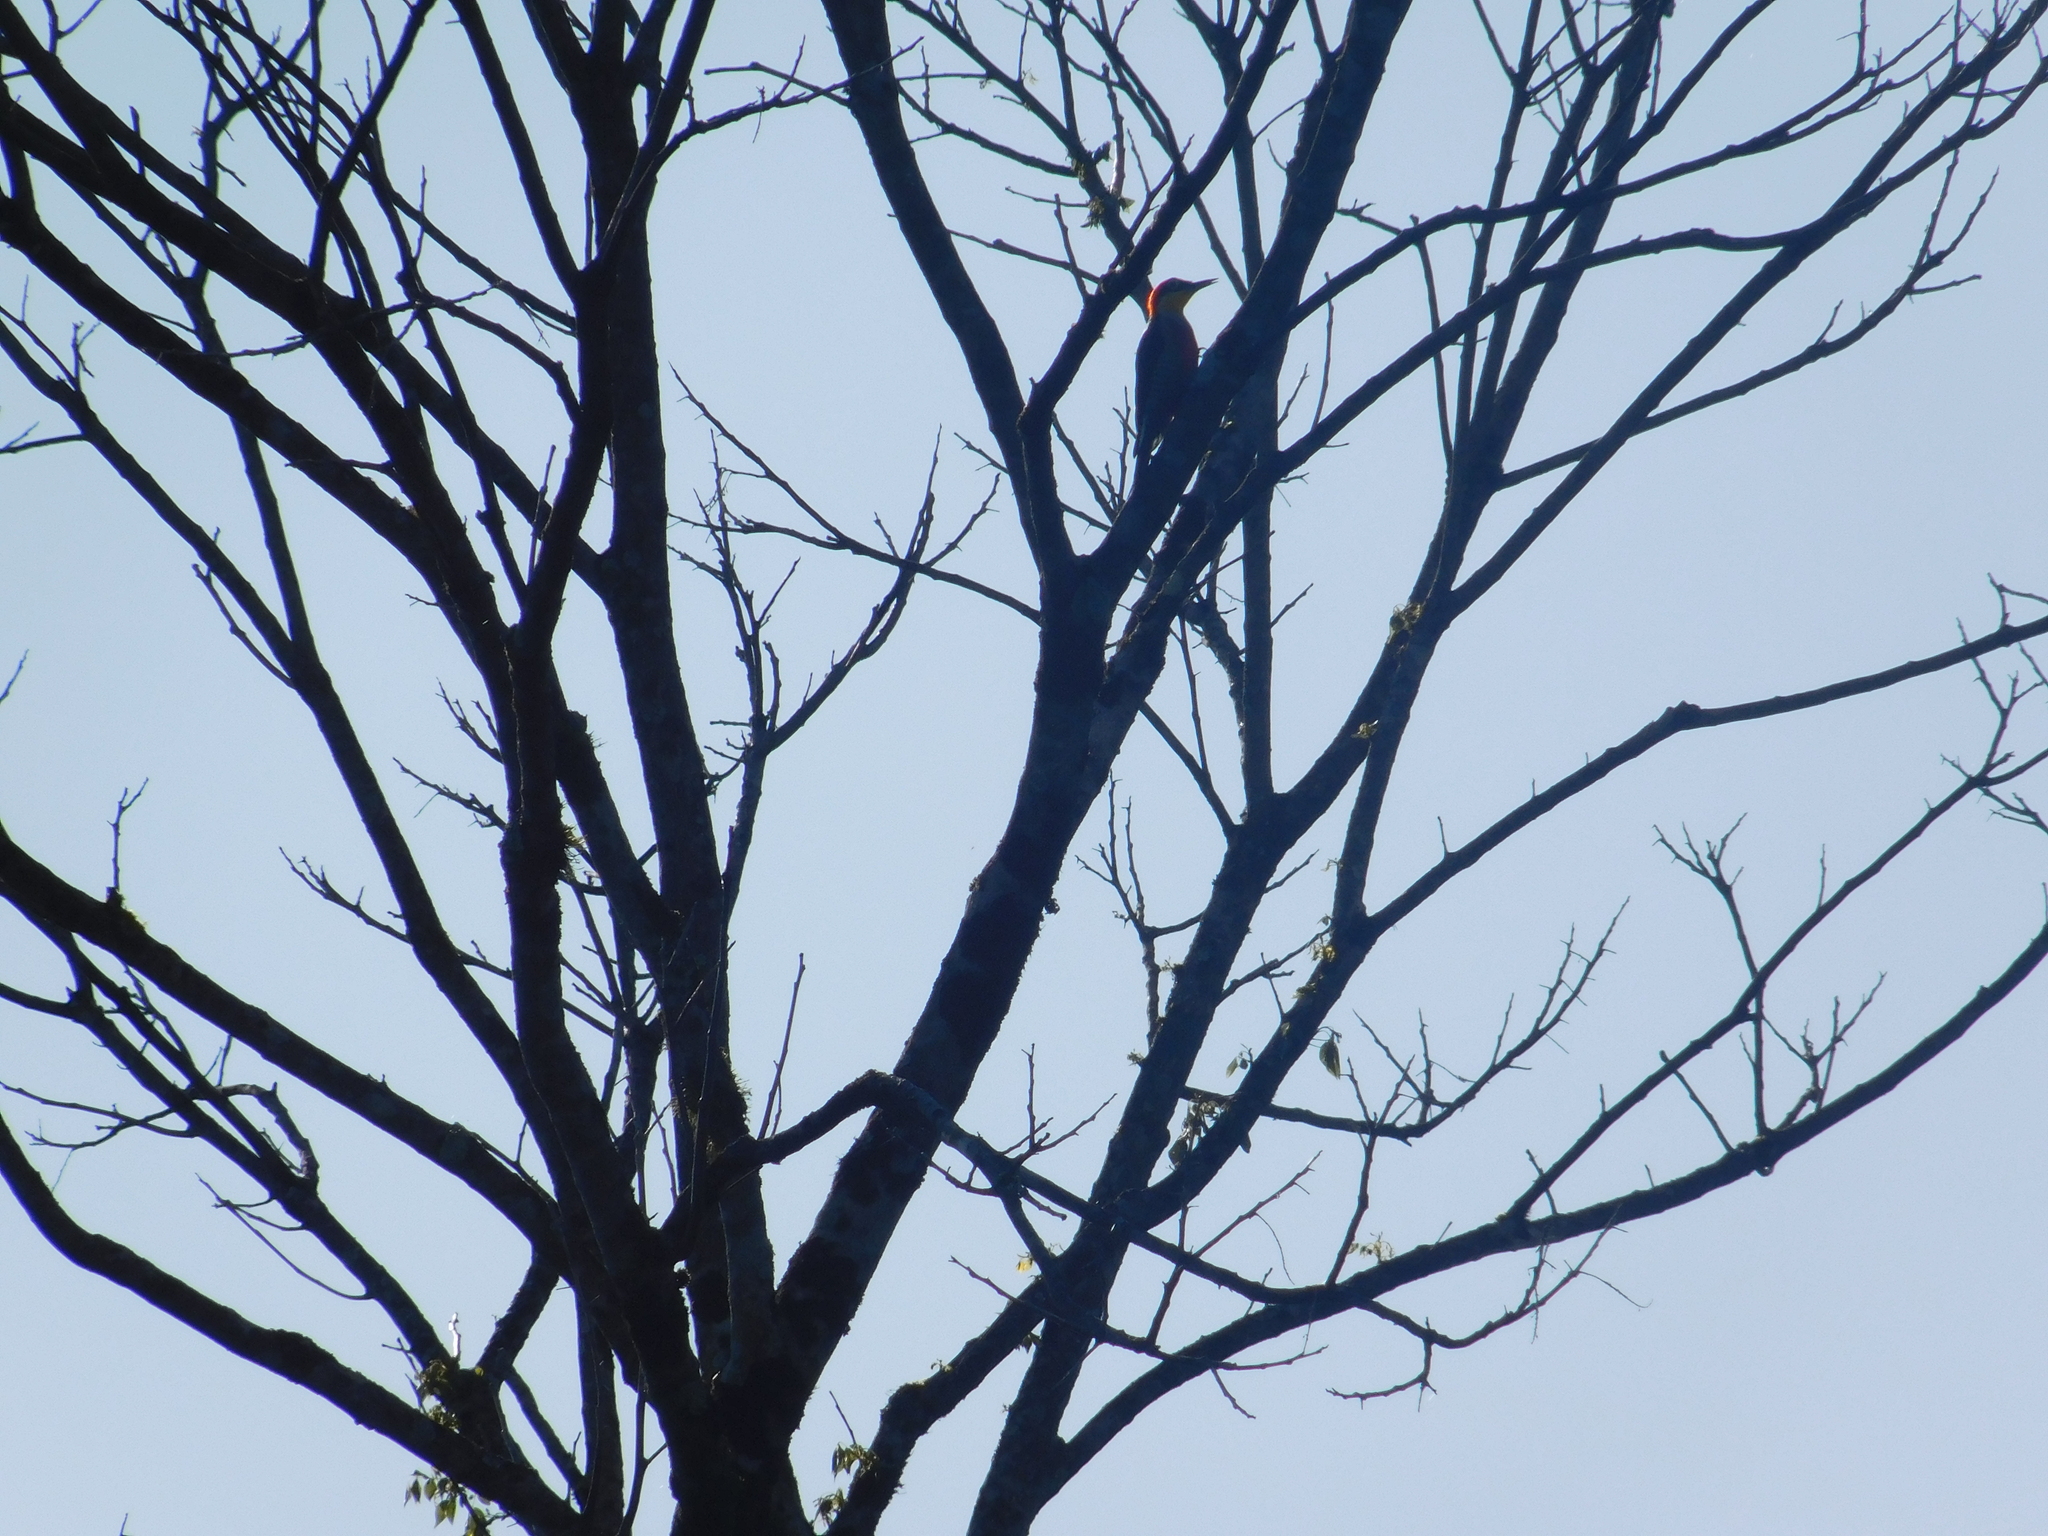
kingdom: Animalia
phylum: Chordata
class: Aves
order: Piciformes
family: Picidae
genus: Melanerpes
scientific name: Melanerpes flavifrons
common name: Yellow-fronted woodpecker
